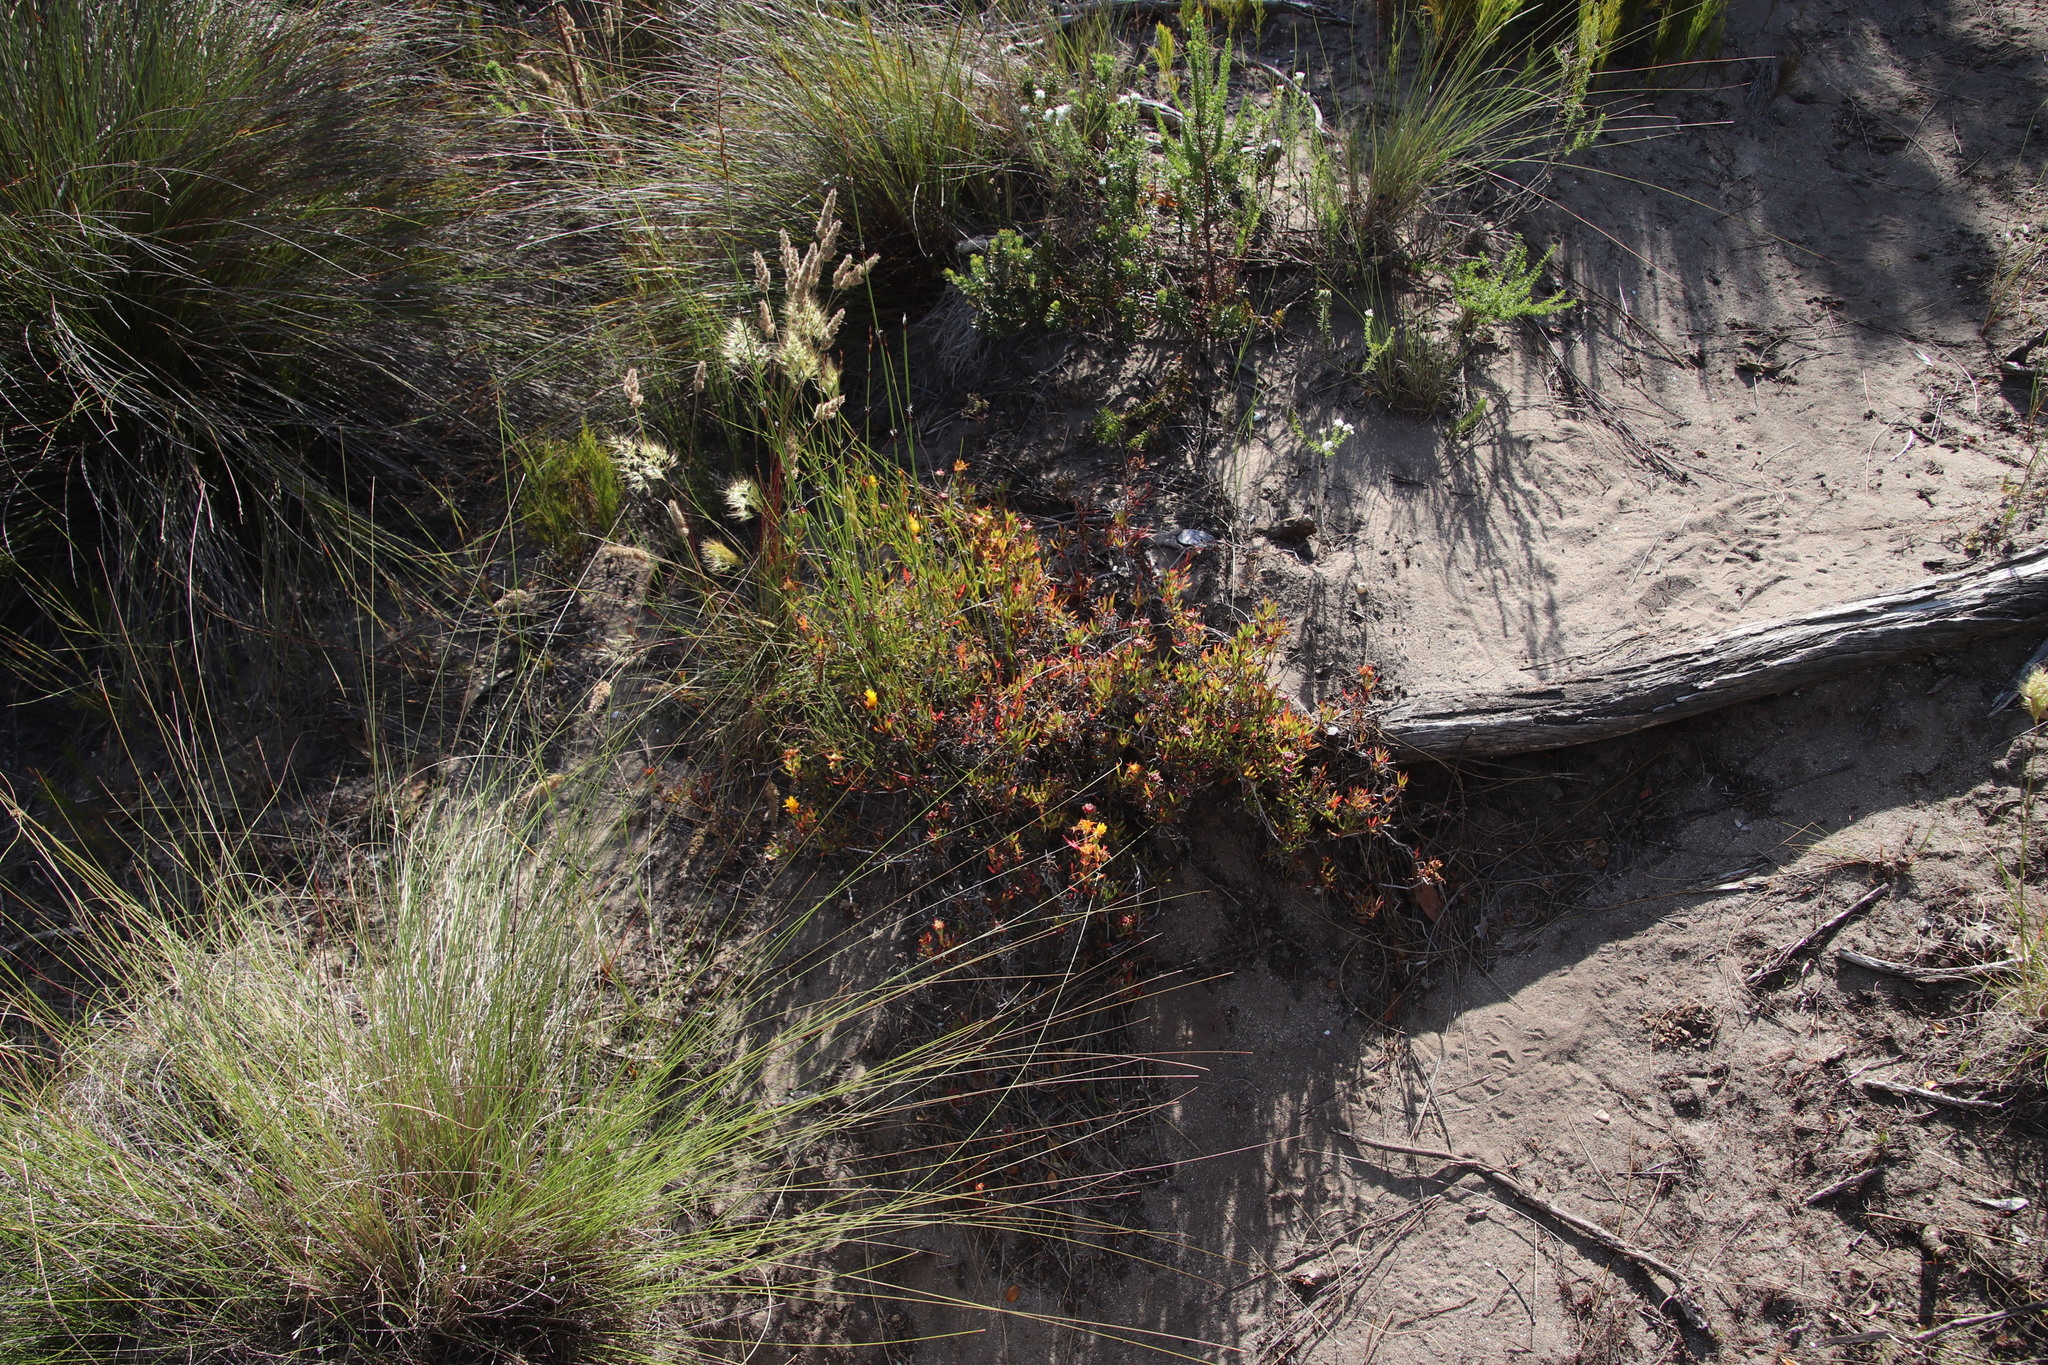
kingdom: Plantae
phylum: Tracheophyta
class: Magnoliopsida
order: Caryophyllales
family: Aizoaceae
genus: Lampranthus
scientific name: Lampranthus bicolor
